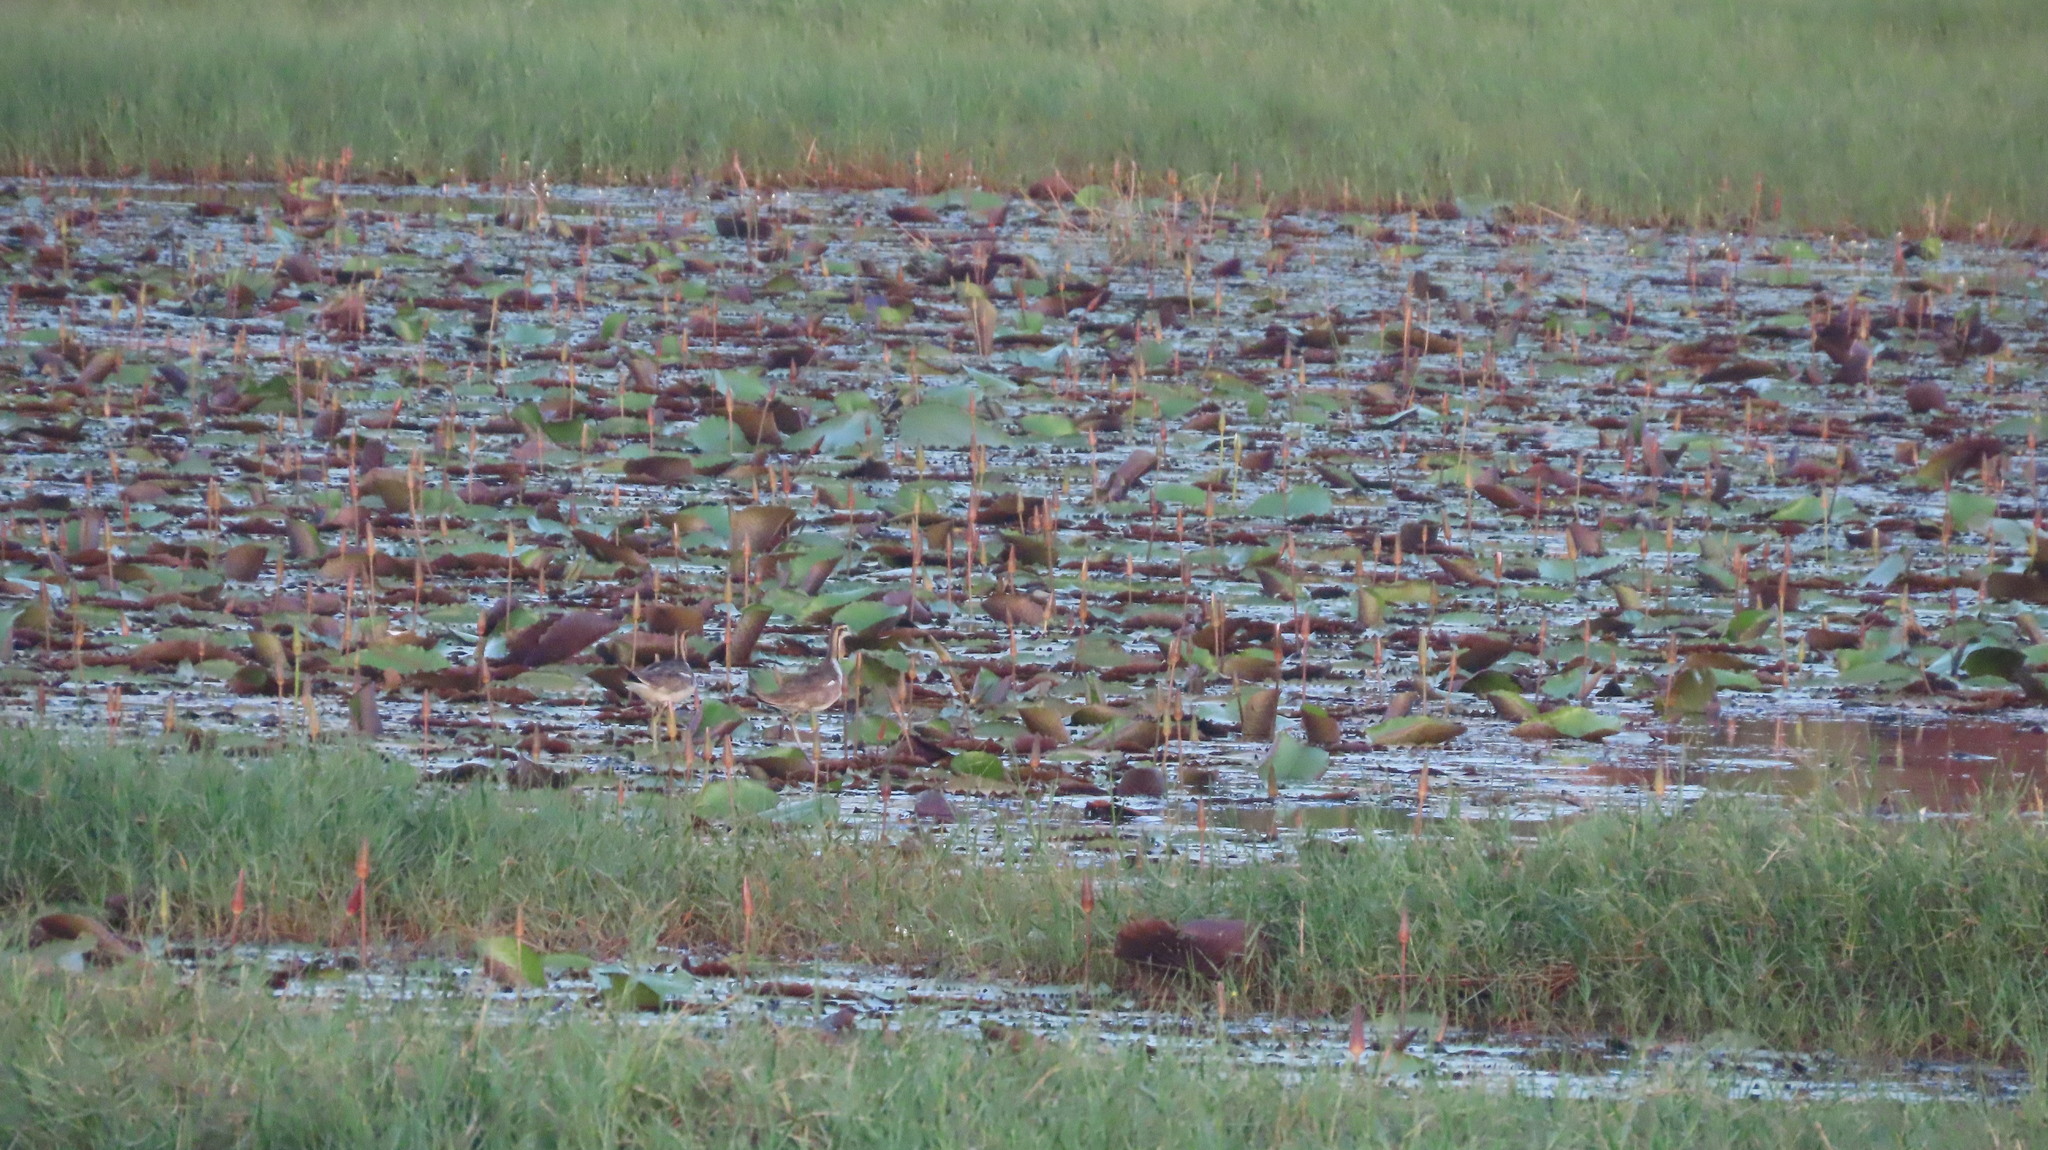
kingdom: Animalia
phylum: Chordata
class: Aves
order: Charadriiformes
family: Jacanidae
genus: Hydrophasianus
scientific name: Hydrophasianus chirurgus
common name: Pheasant-tailed jacana
